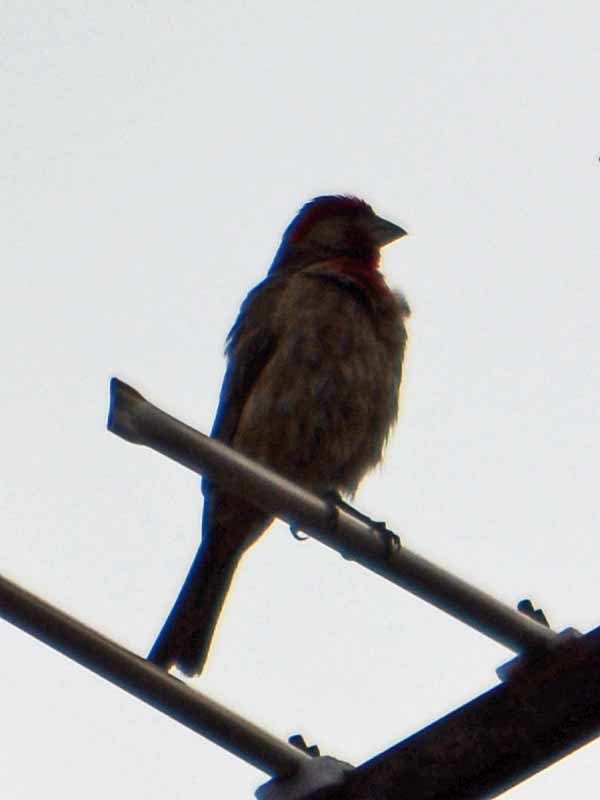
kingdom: Animalia
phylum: Chordata
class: Aves
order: Passeriformes
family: Fringillidae
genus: Haemorhous
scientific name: Haemorhous mexicanus
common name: House finch
